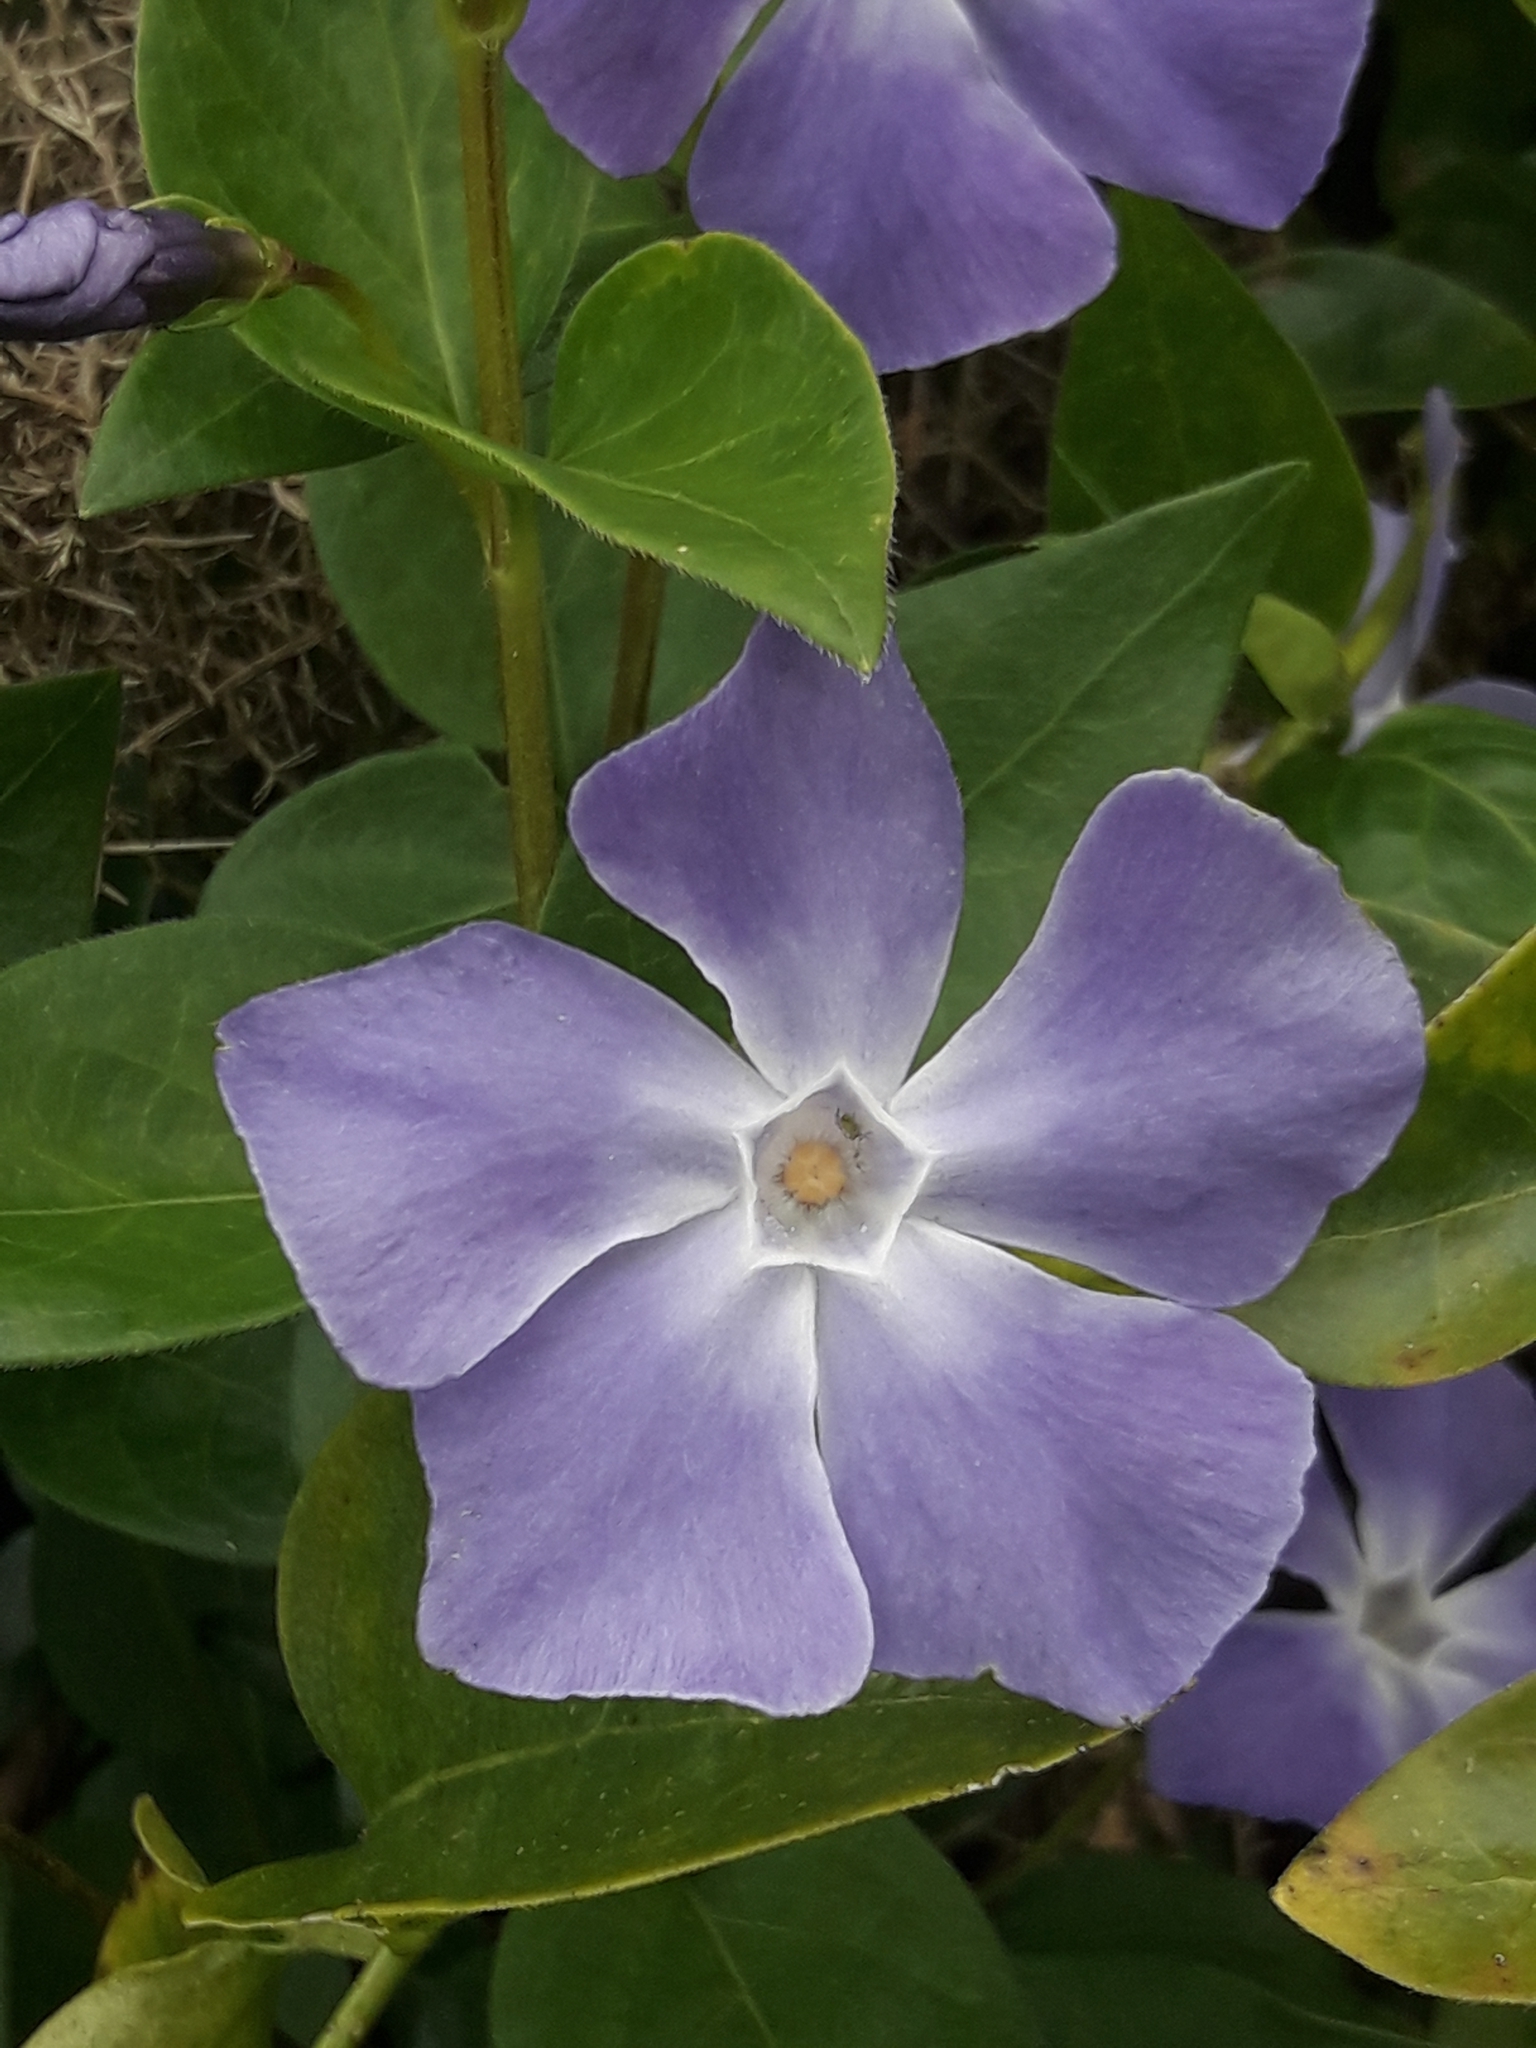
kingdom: Plantae
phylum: Tracheophyta
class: Magnoliopsida
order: Gentianales
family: Apocynaceae
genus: Vinca
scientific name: Vinca major
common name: Greater periwinkle
